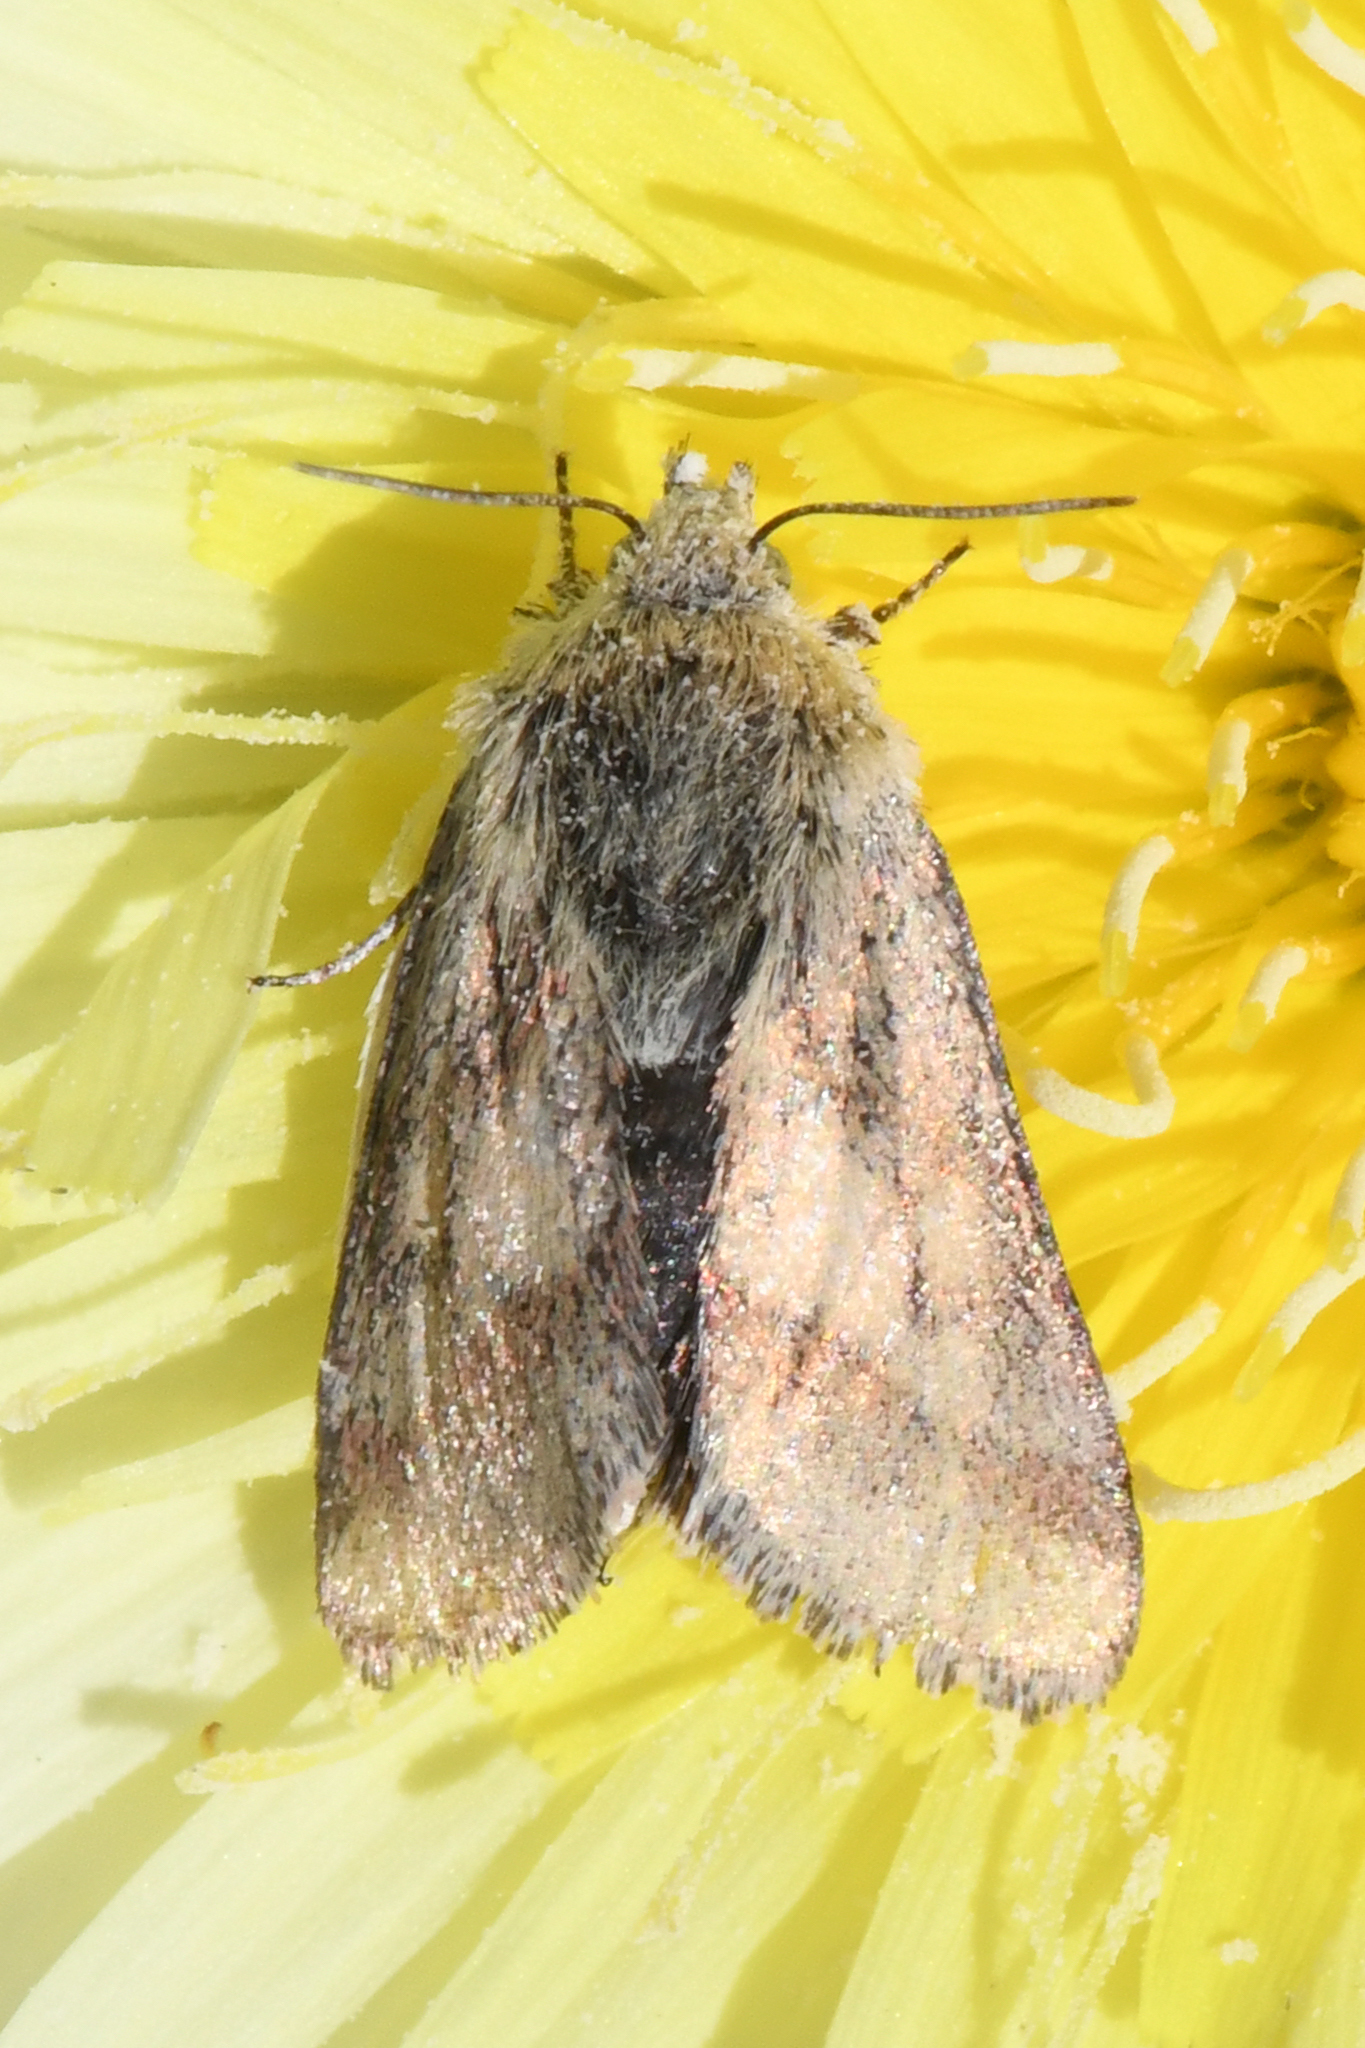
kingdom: Animalia
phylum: Arthropoda
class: Insecta
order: Lepidoptera
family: Noctuidae
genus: Heliolonche
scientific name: Heliolonche pictipennis
